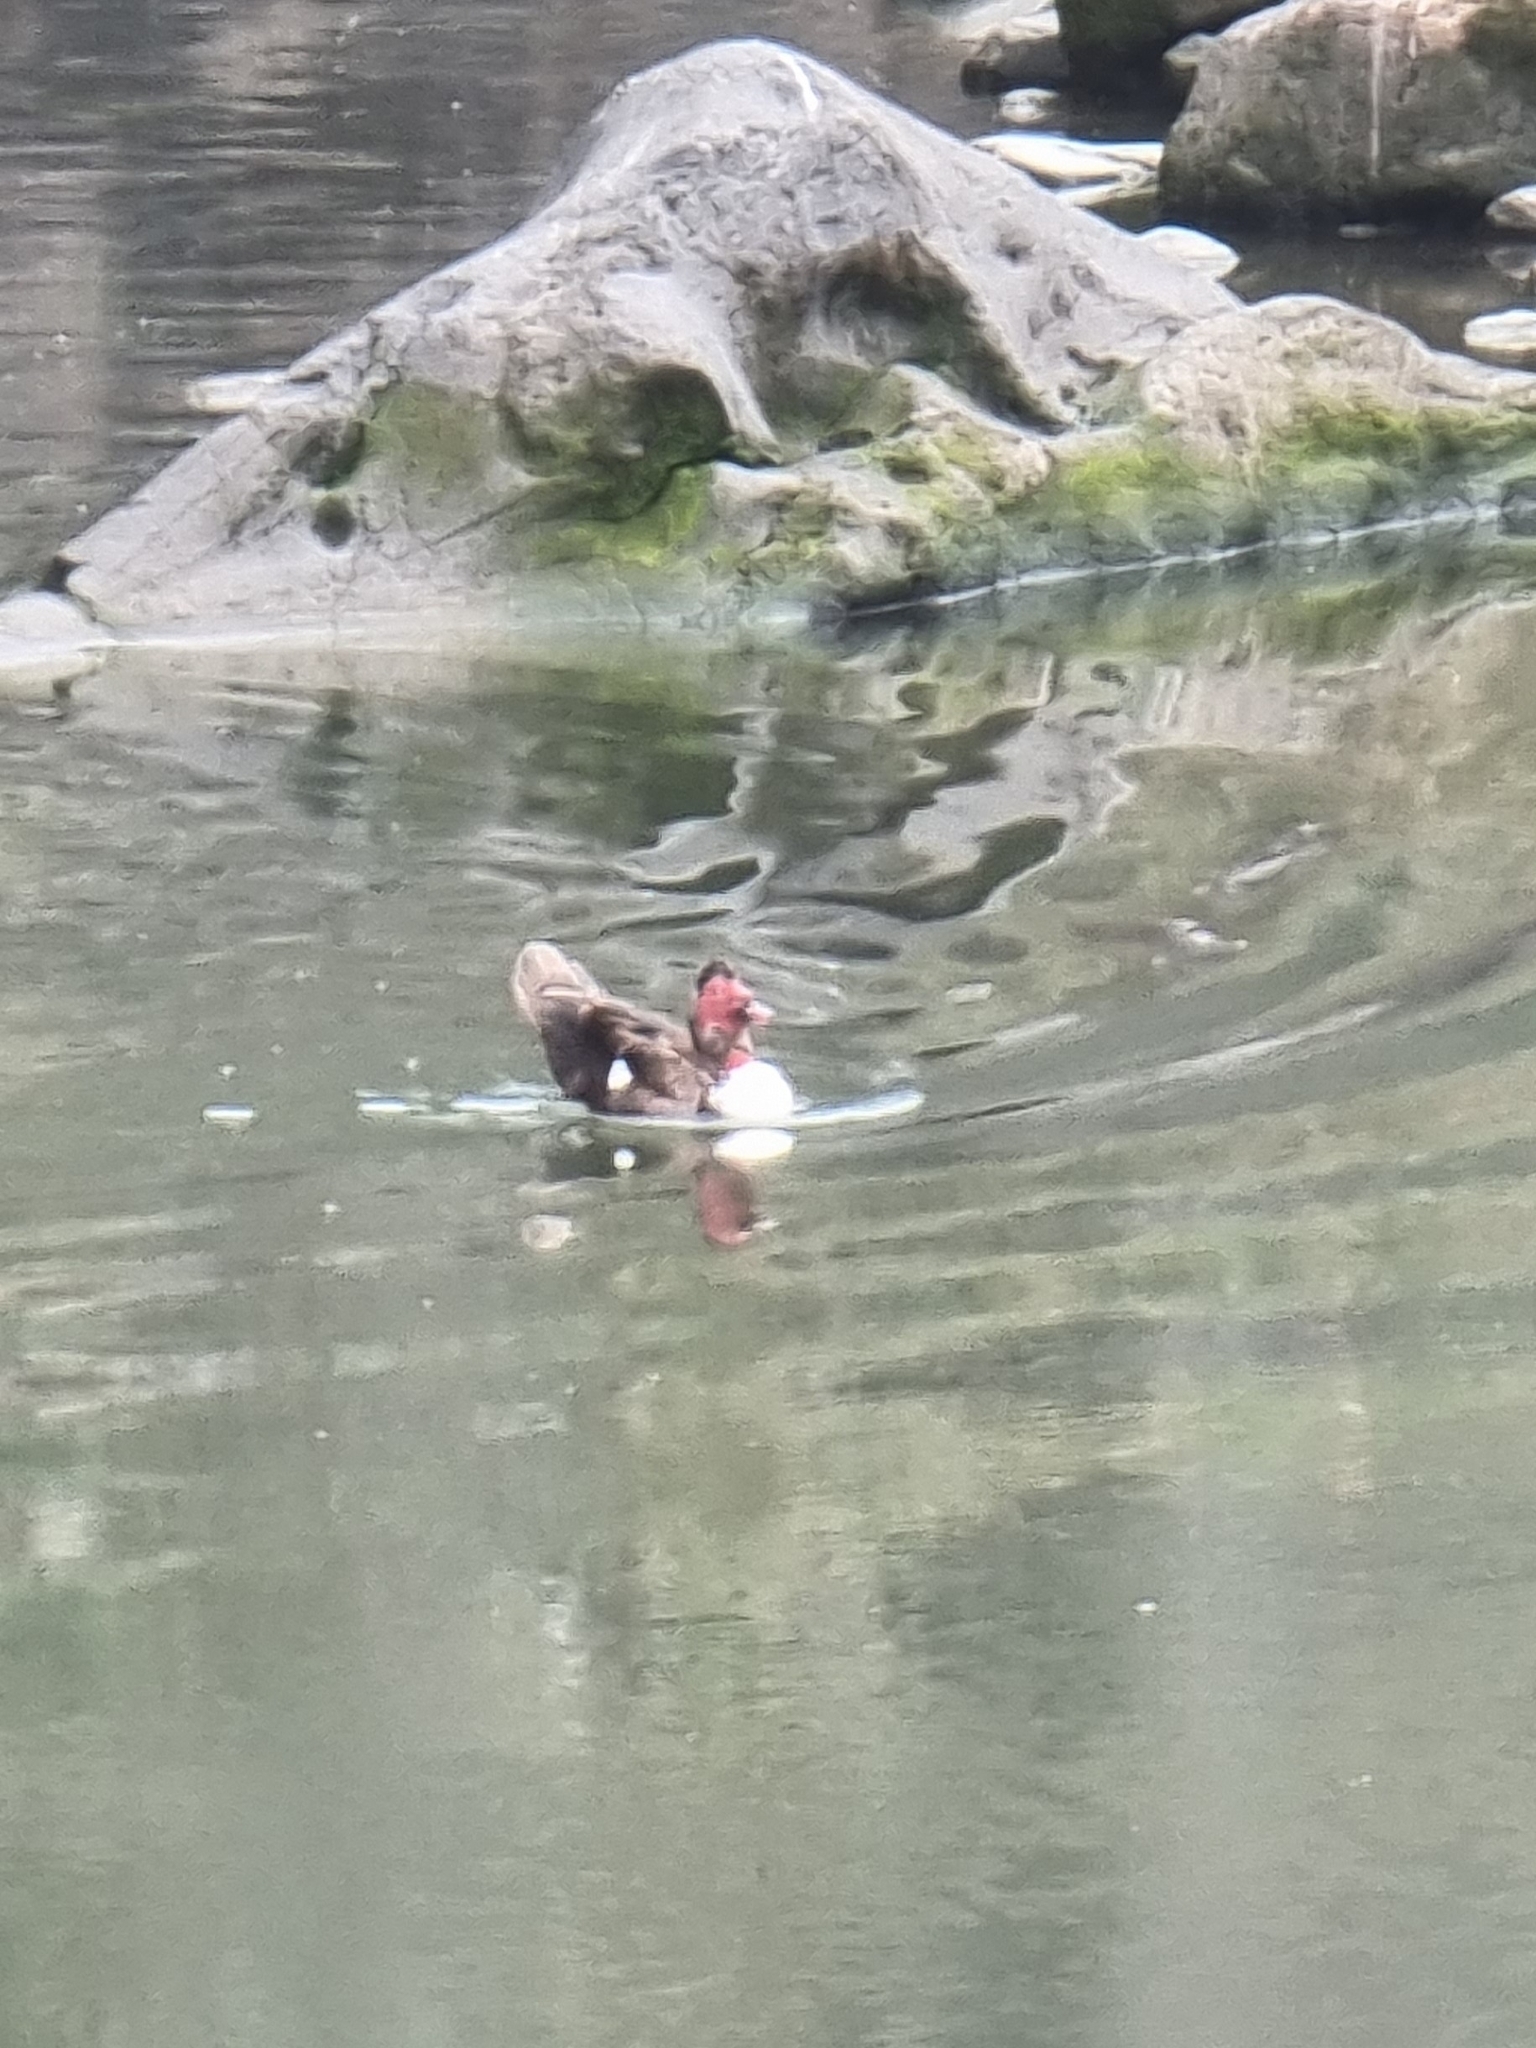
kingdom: Animalia
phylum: Chordata
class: Aves
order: Anseriformes
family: Anatidae
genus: Cairina
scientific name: Cairina moschata
